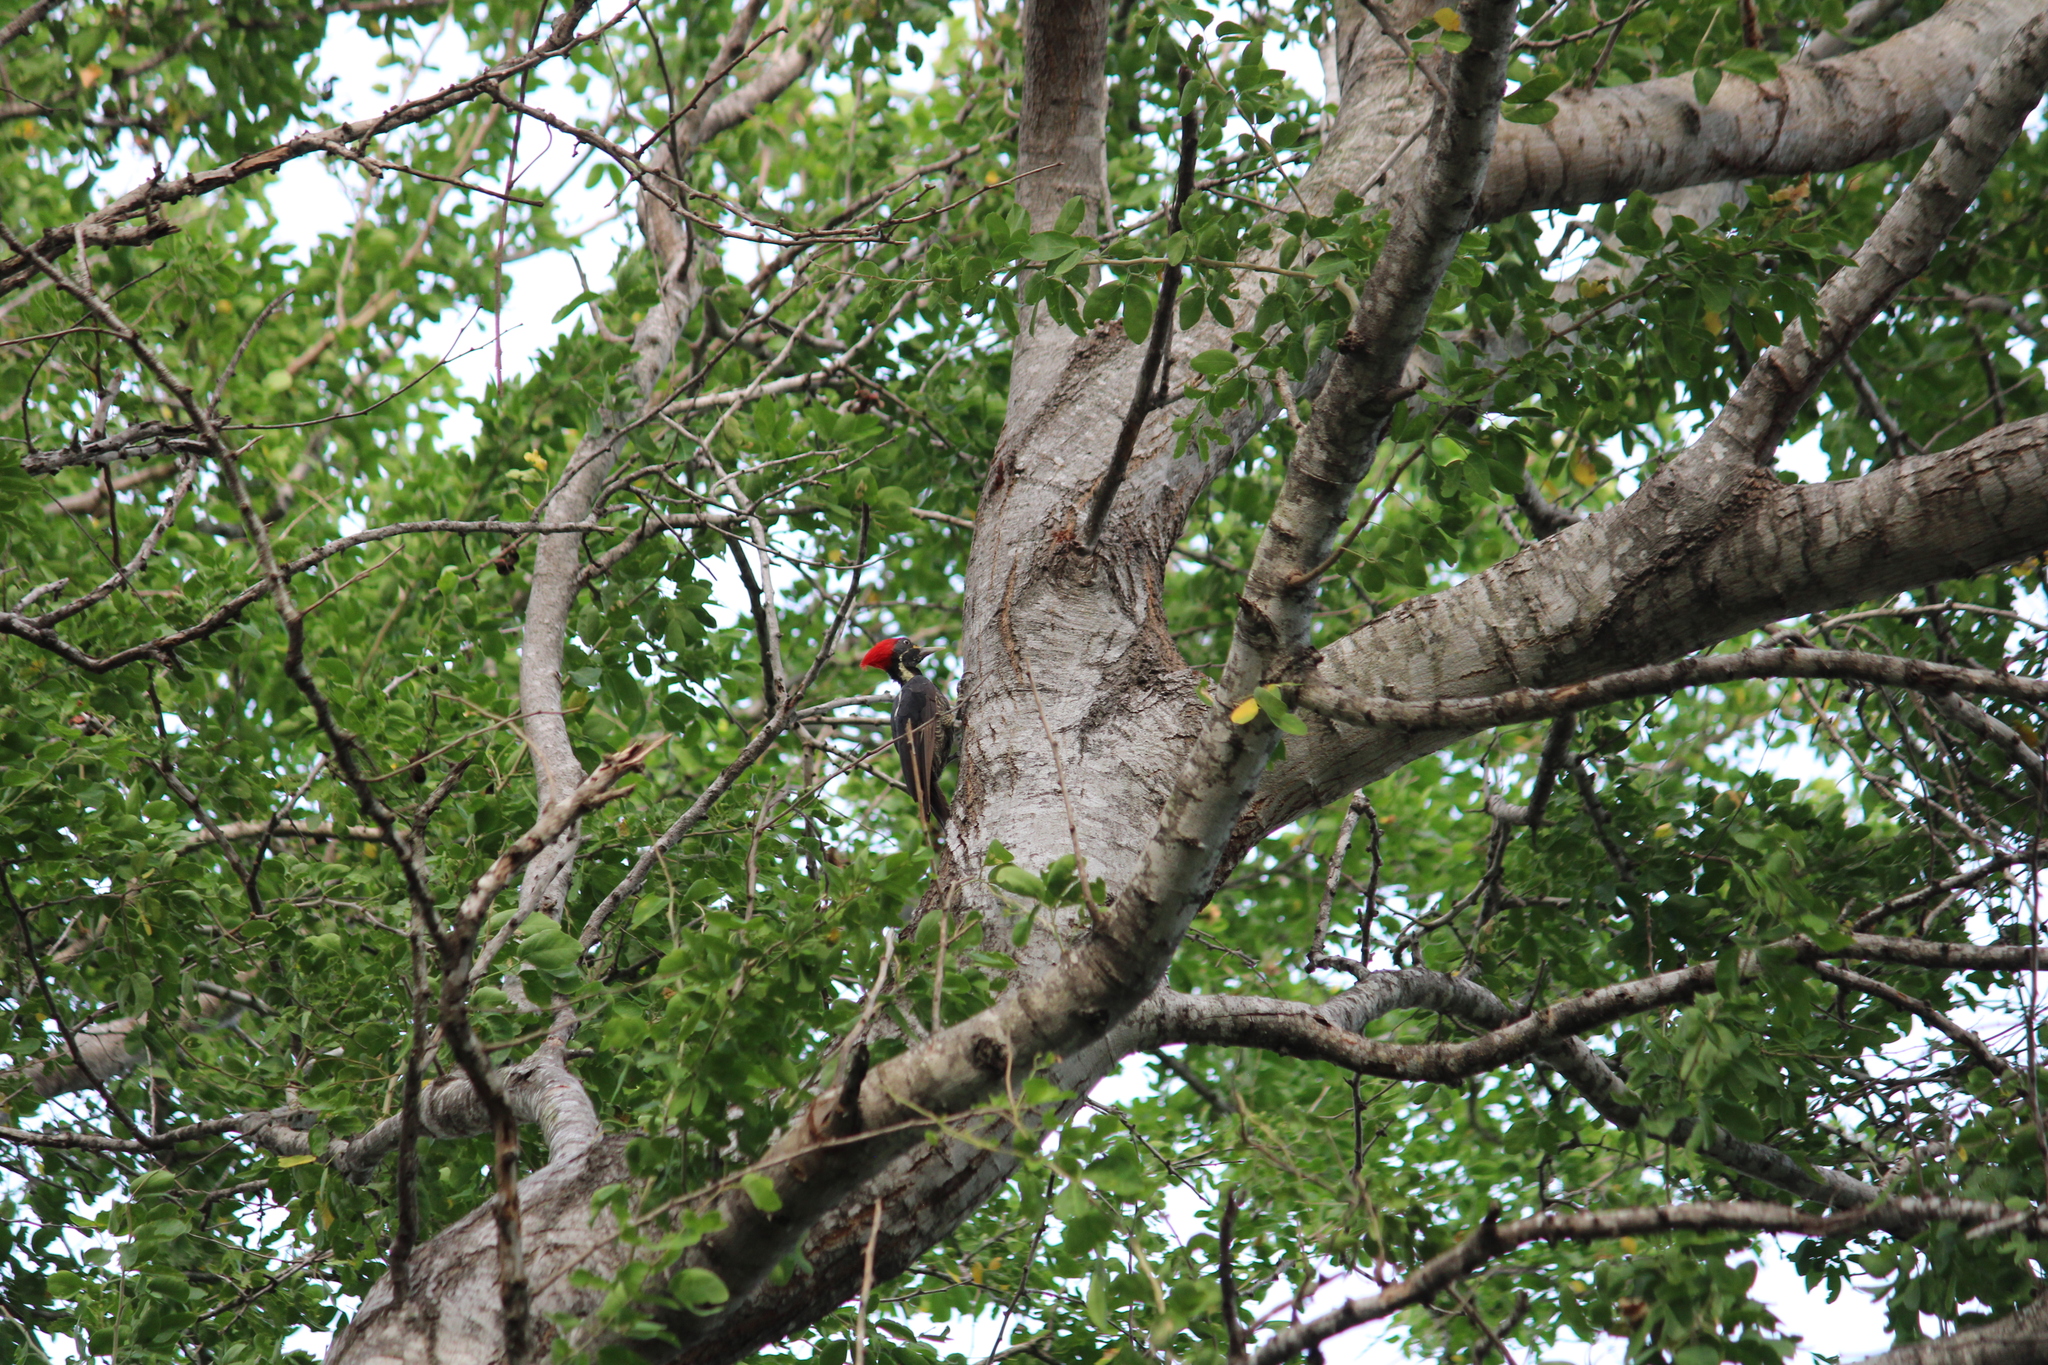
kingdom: Animalia
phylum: Chordata
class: Aves
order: Piciformes
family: Picidae
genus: Dryocopus
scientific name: Dryocopus lineatus
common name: Lineated woodpecker
